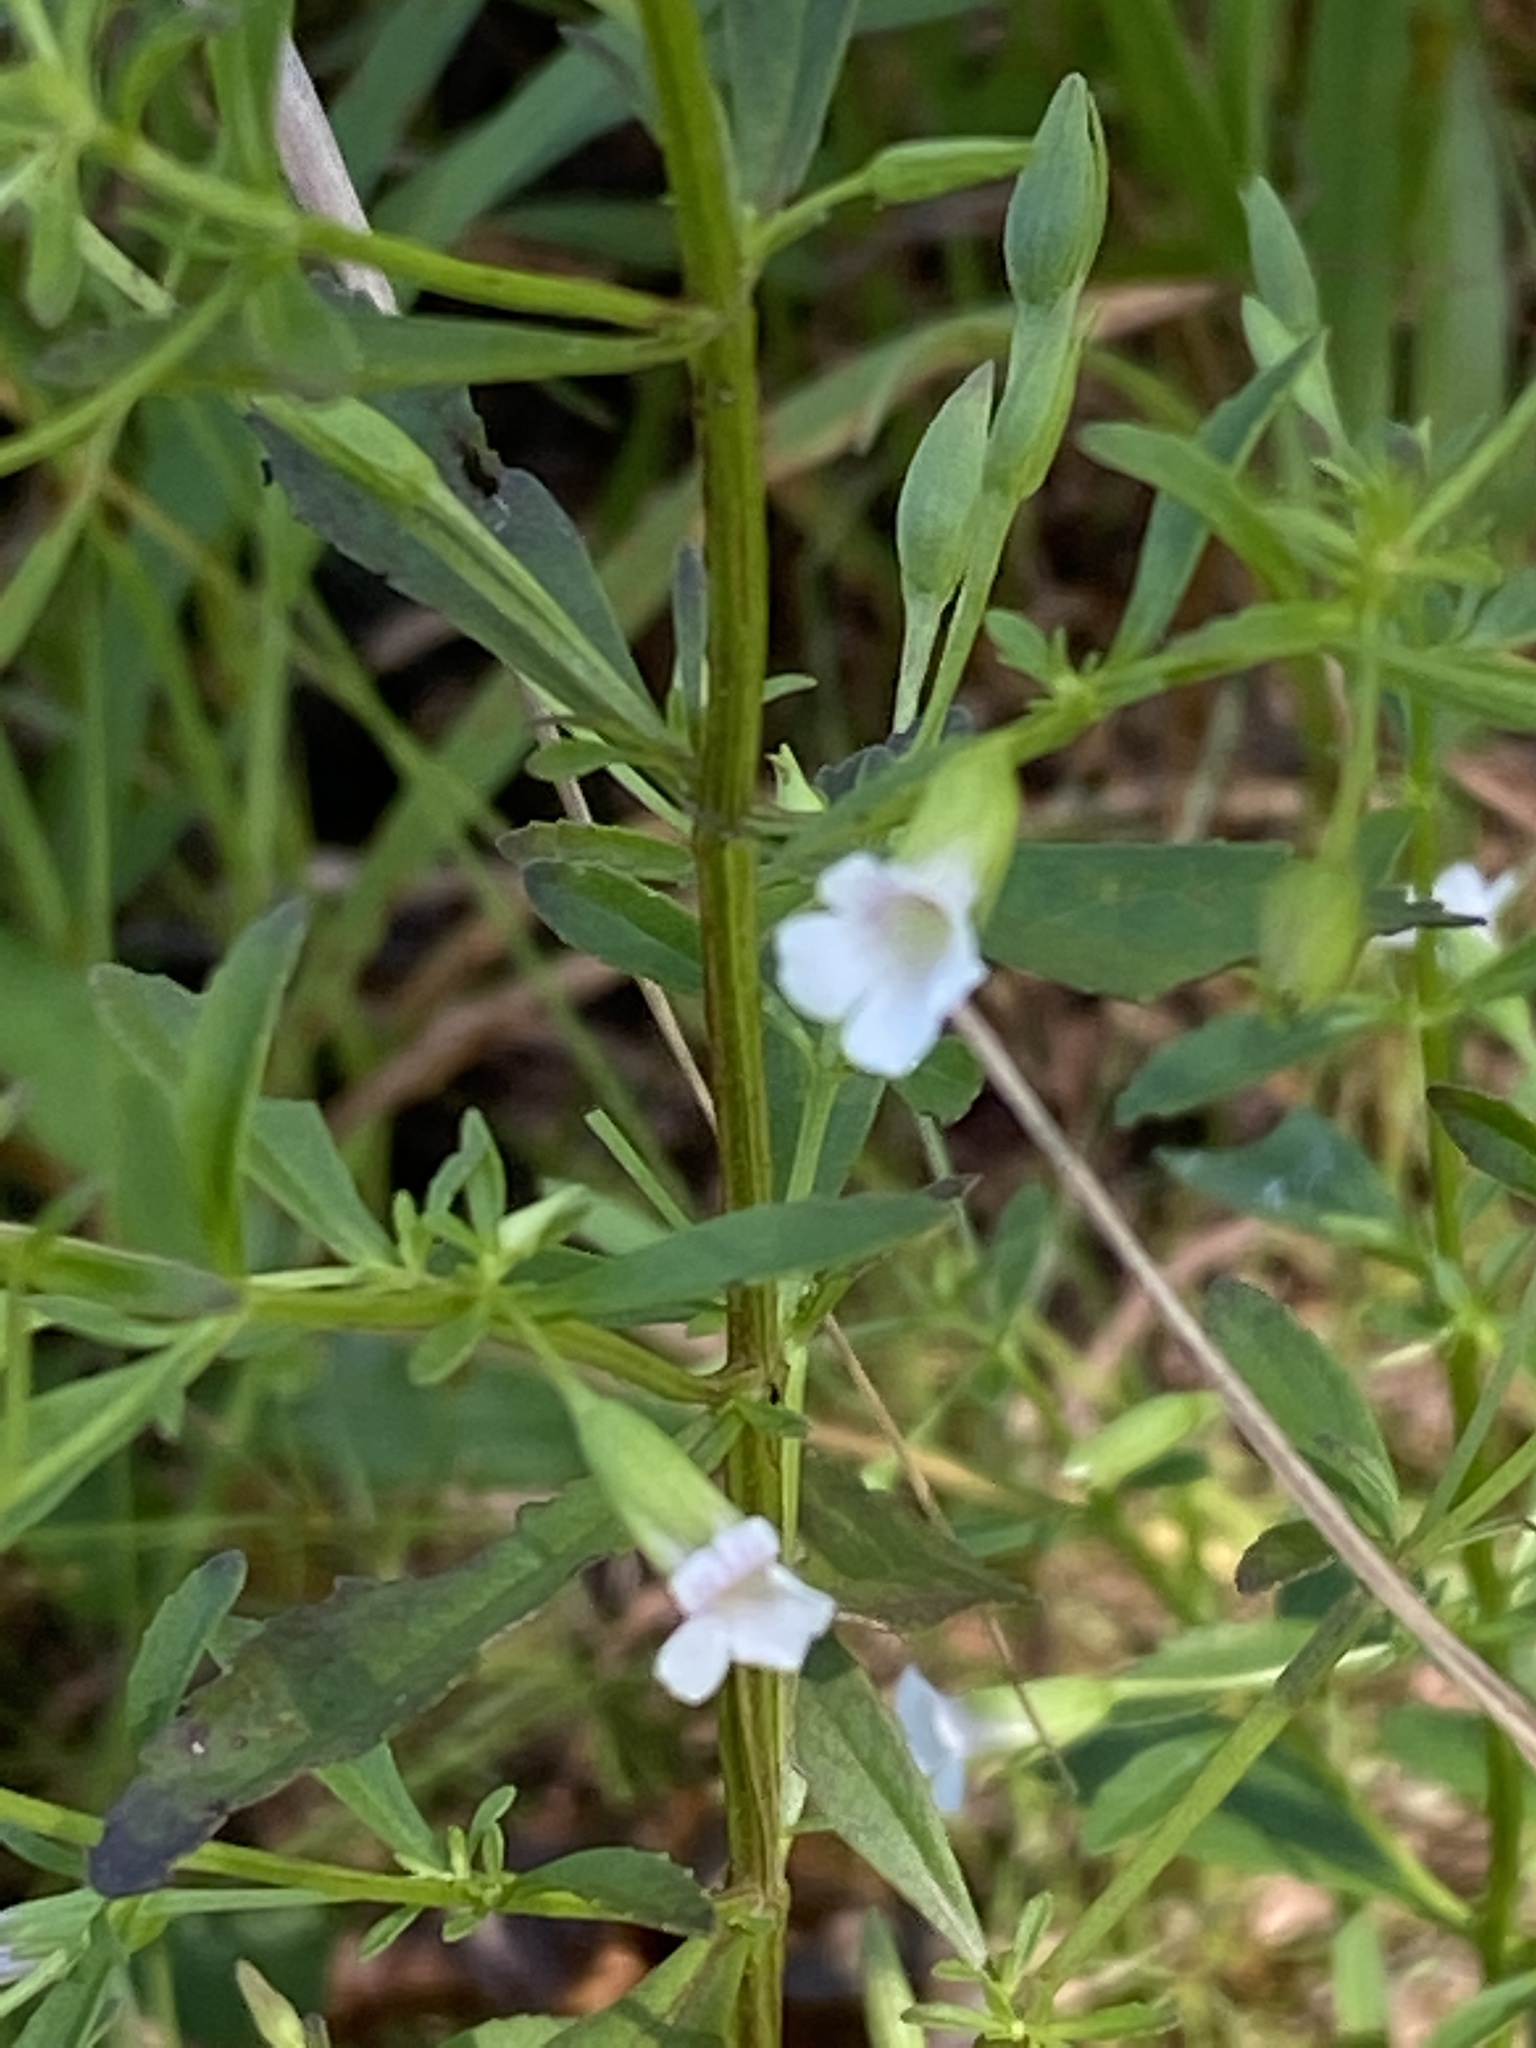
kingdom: Plantae
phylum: Tracheophyta
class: Magnoliopsida
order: Lamiales
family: Plantaginaceae
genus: Mecardonia
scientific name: Mecardonia acuminata
